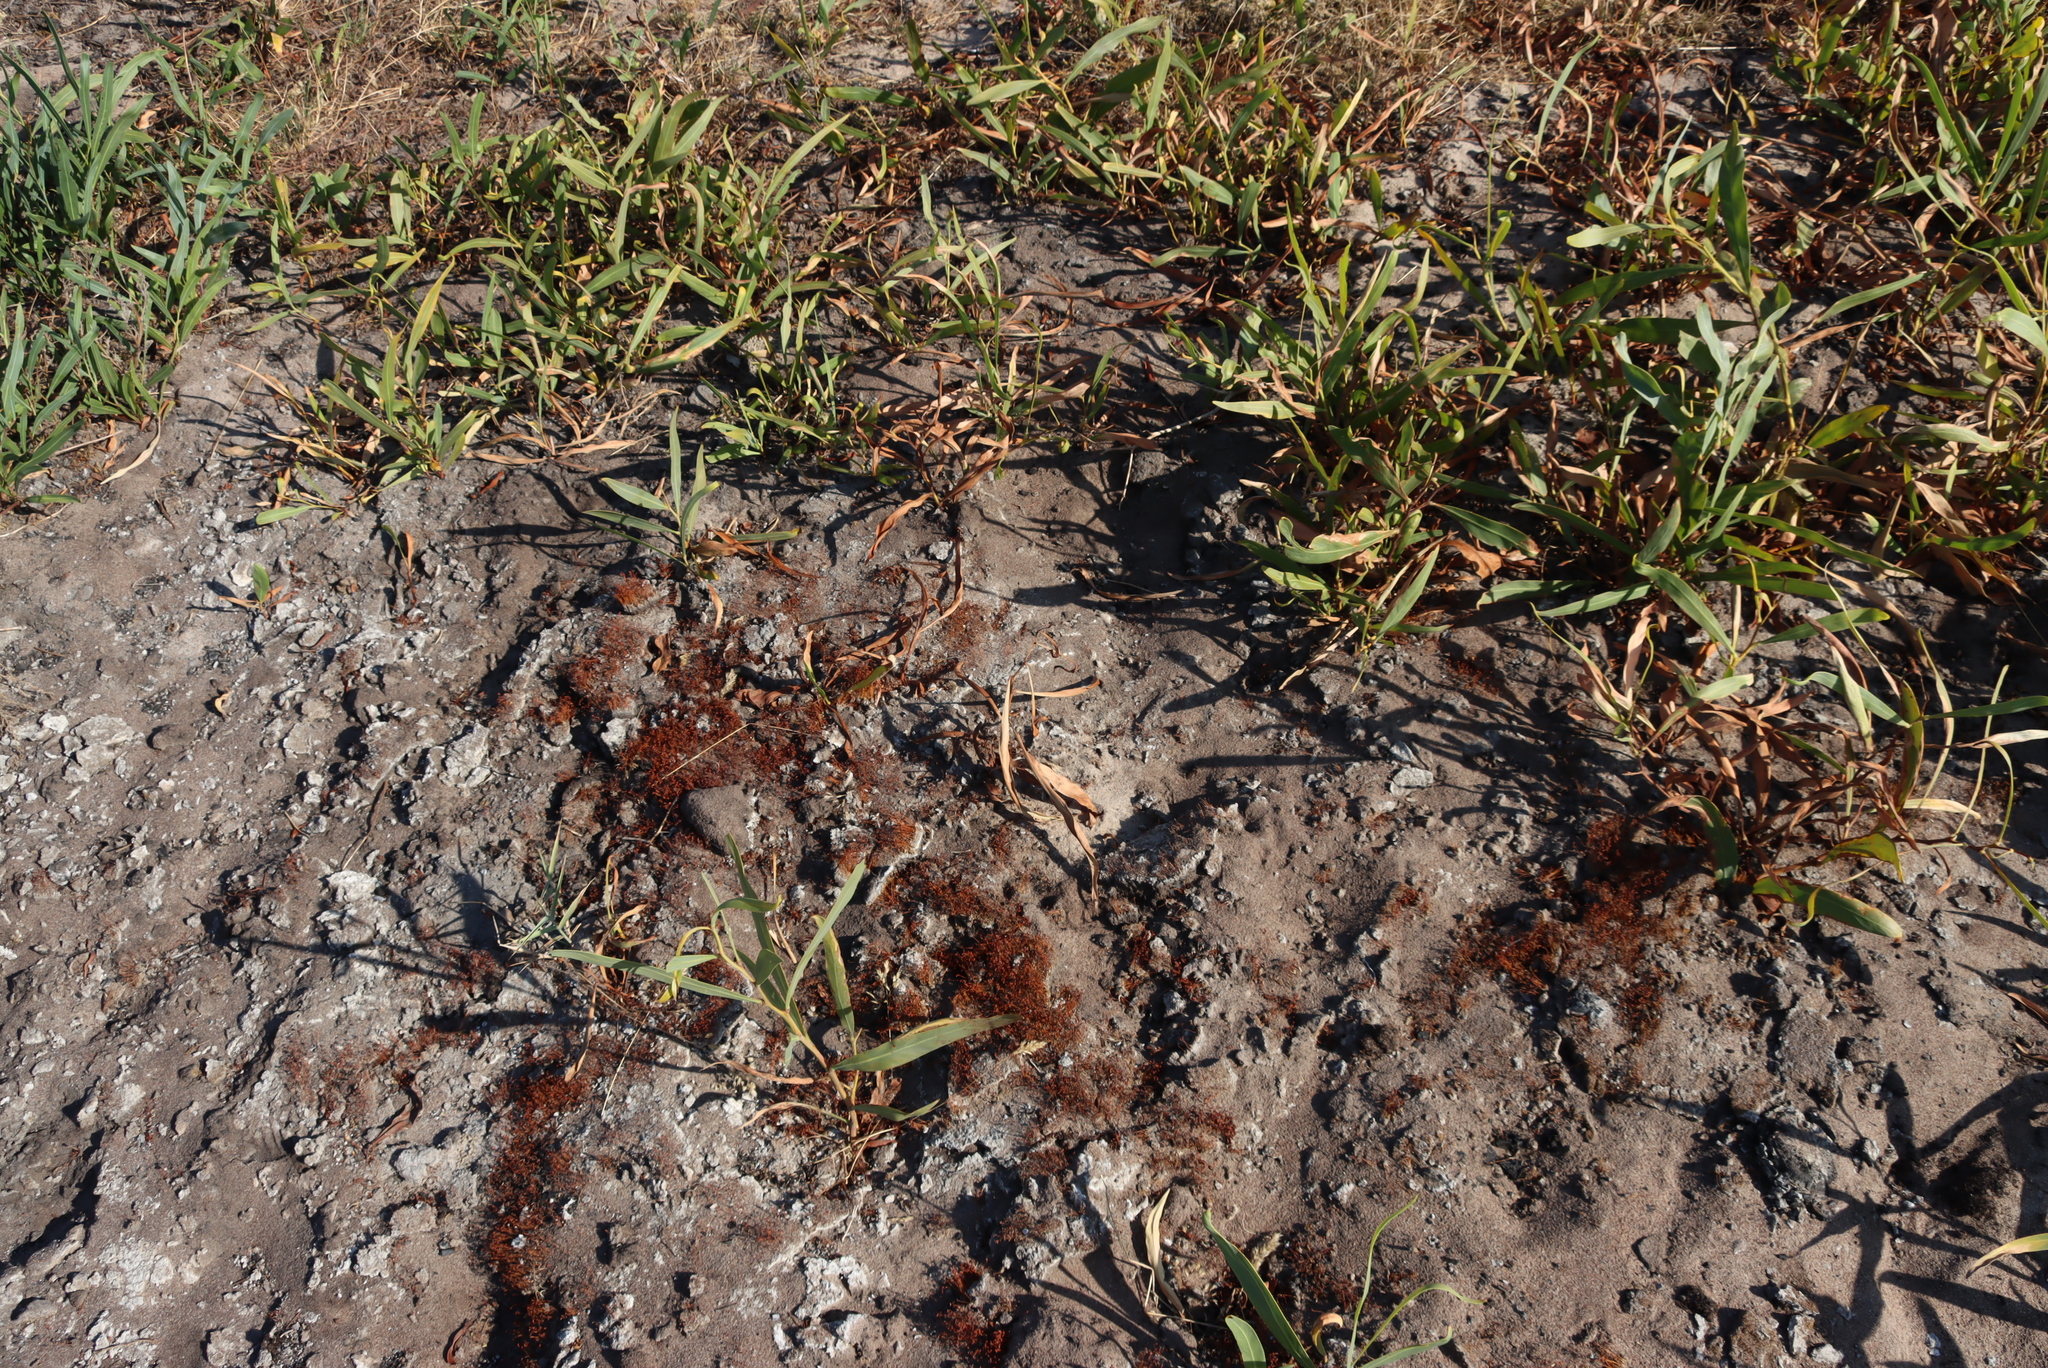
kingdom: Plantae
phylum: Tracheophyta
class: Magnoliopsida
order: Fabales
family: Fabaceae
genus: Acacia
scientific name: Acacia saligna
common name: Orange wattle
